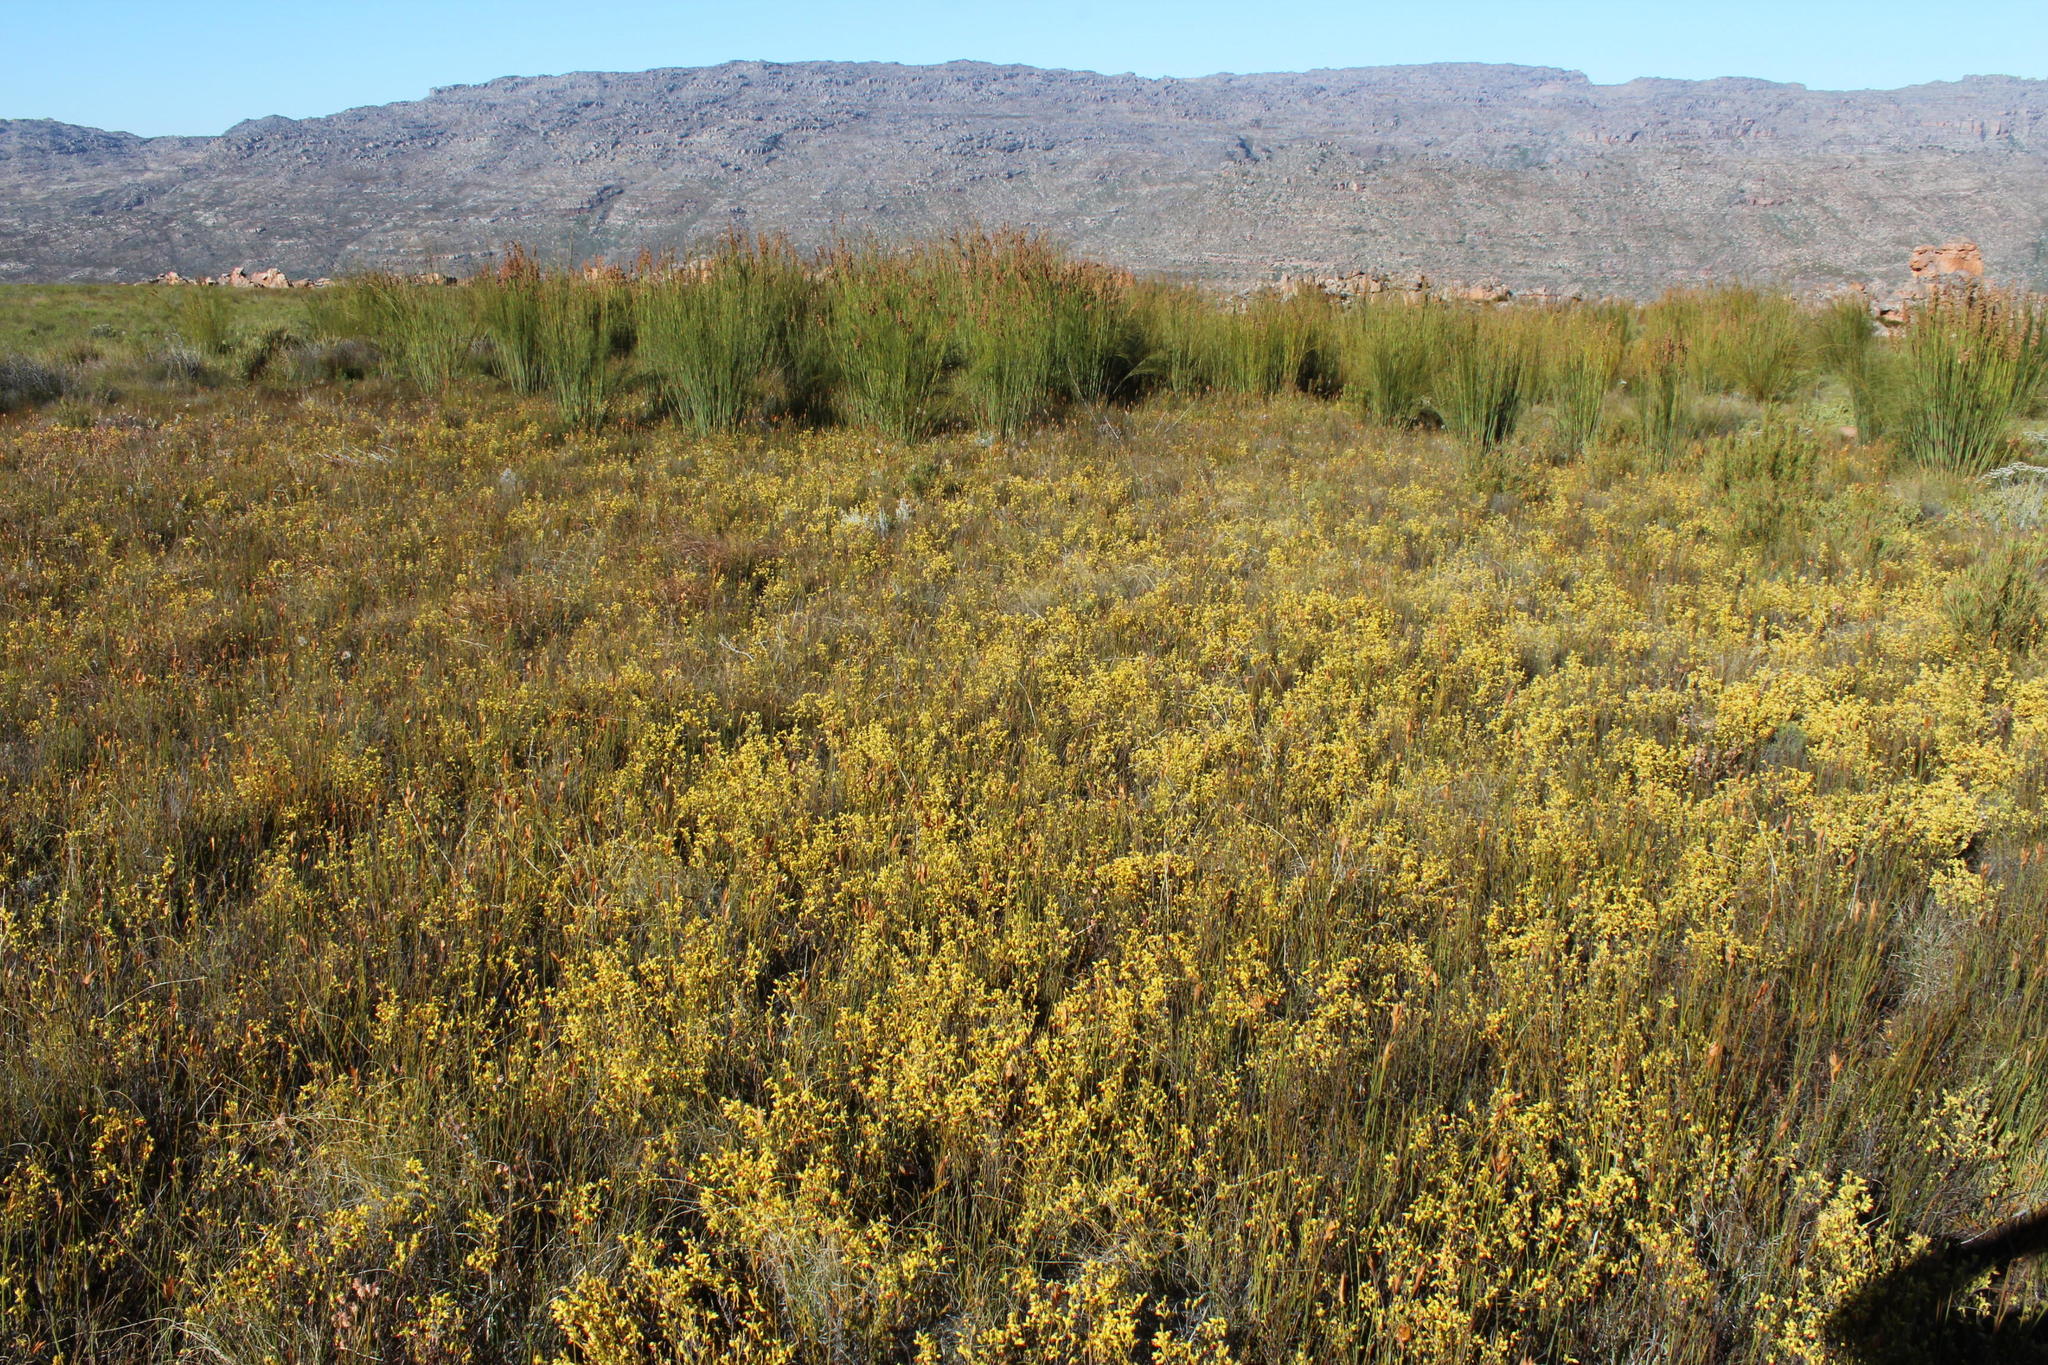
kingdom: Plantae
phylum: Tracheophyta
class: Magnoliopsida
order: Ericales
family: Ericaceae
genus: Erica
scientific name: Erica thunbergii
